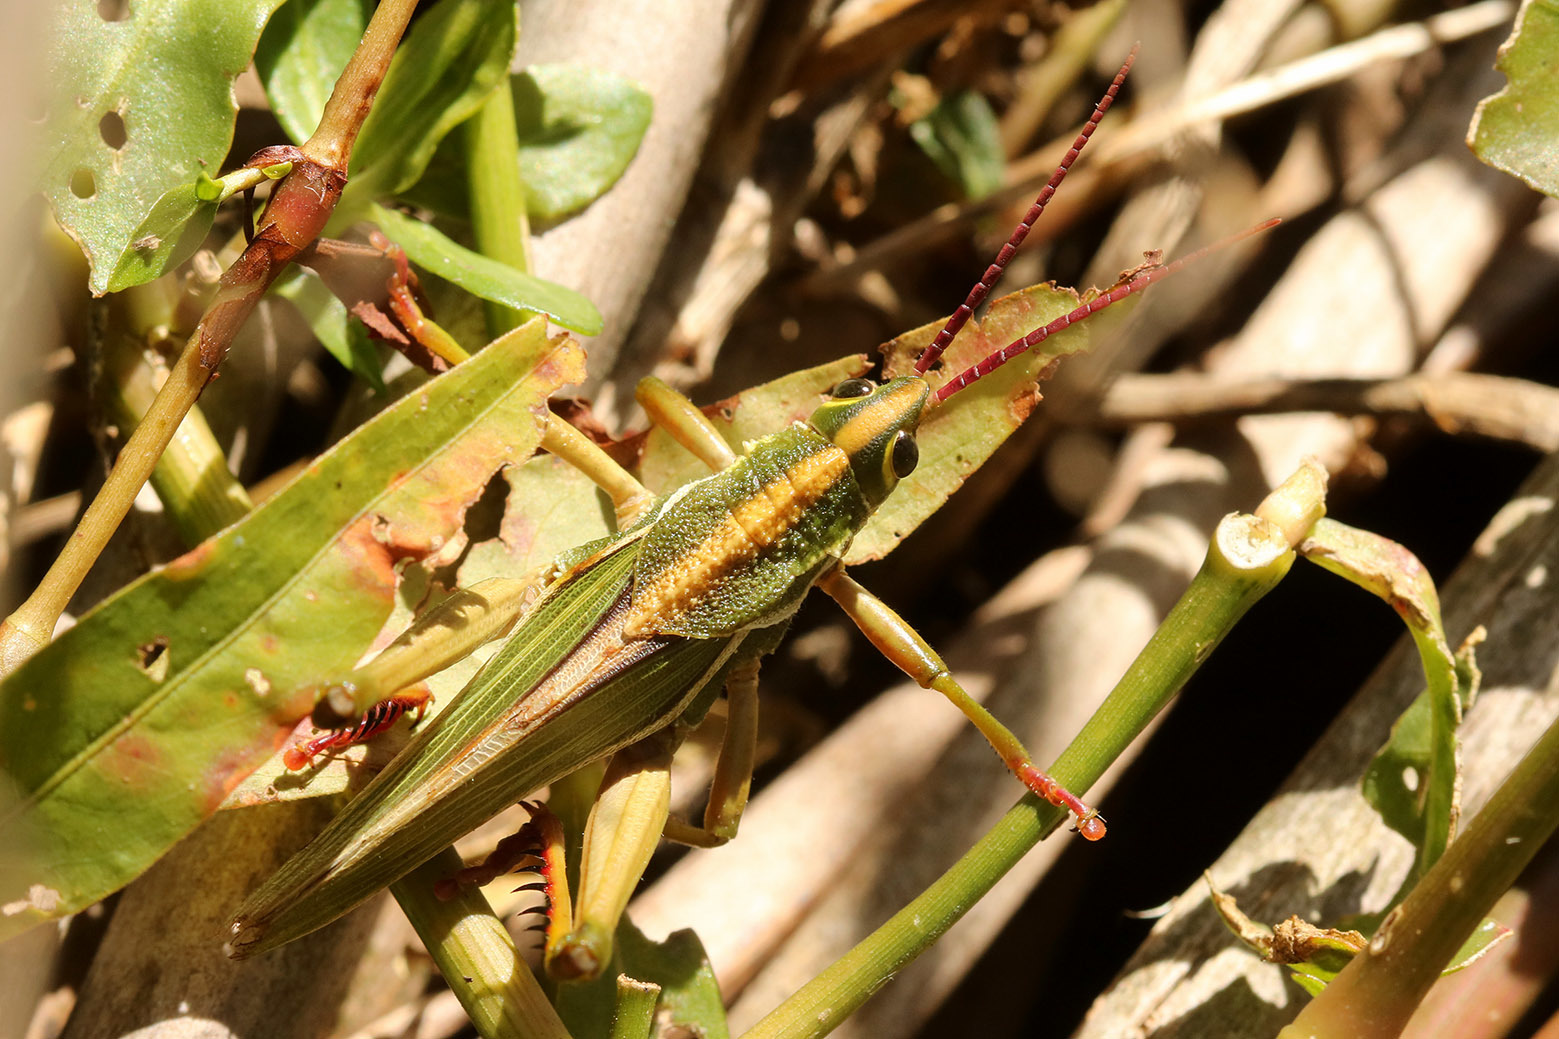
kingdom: Animalia
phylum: Arthropoda
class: Insecta
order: Orthoptera
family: Romaleidae
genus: Staleochlora
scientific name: Staleochlora viridicata
